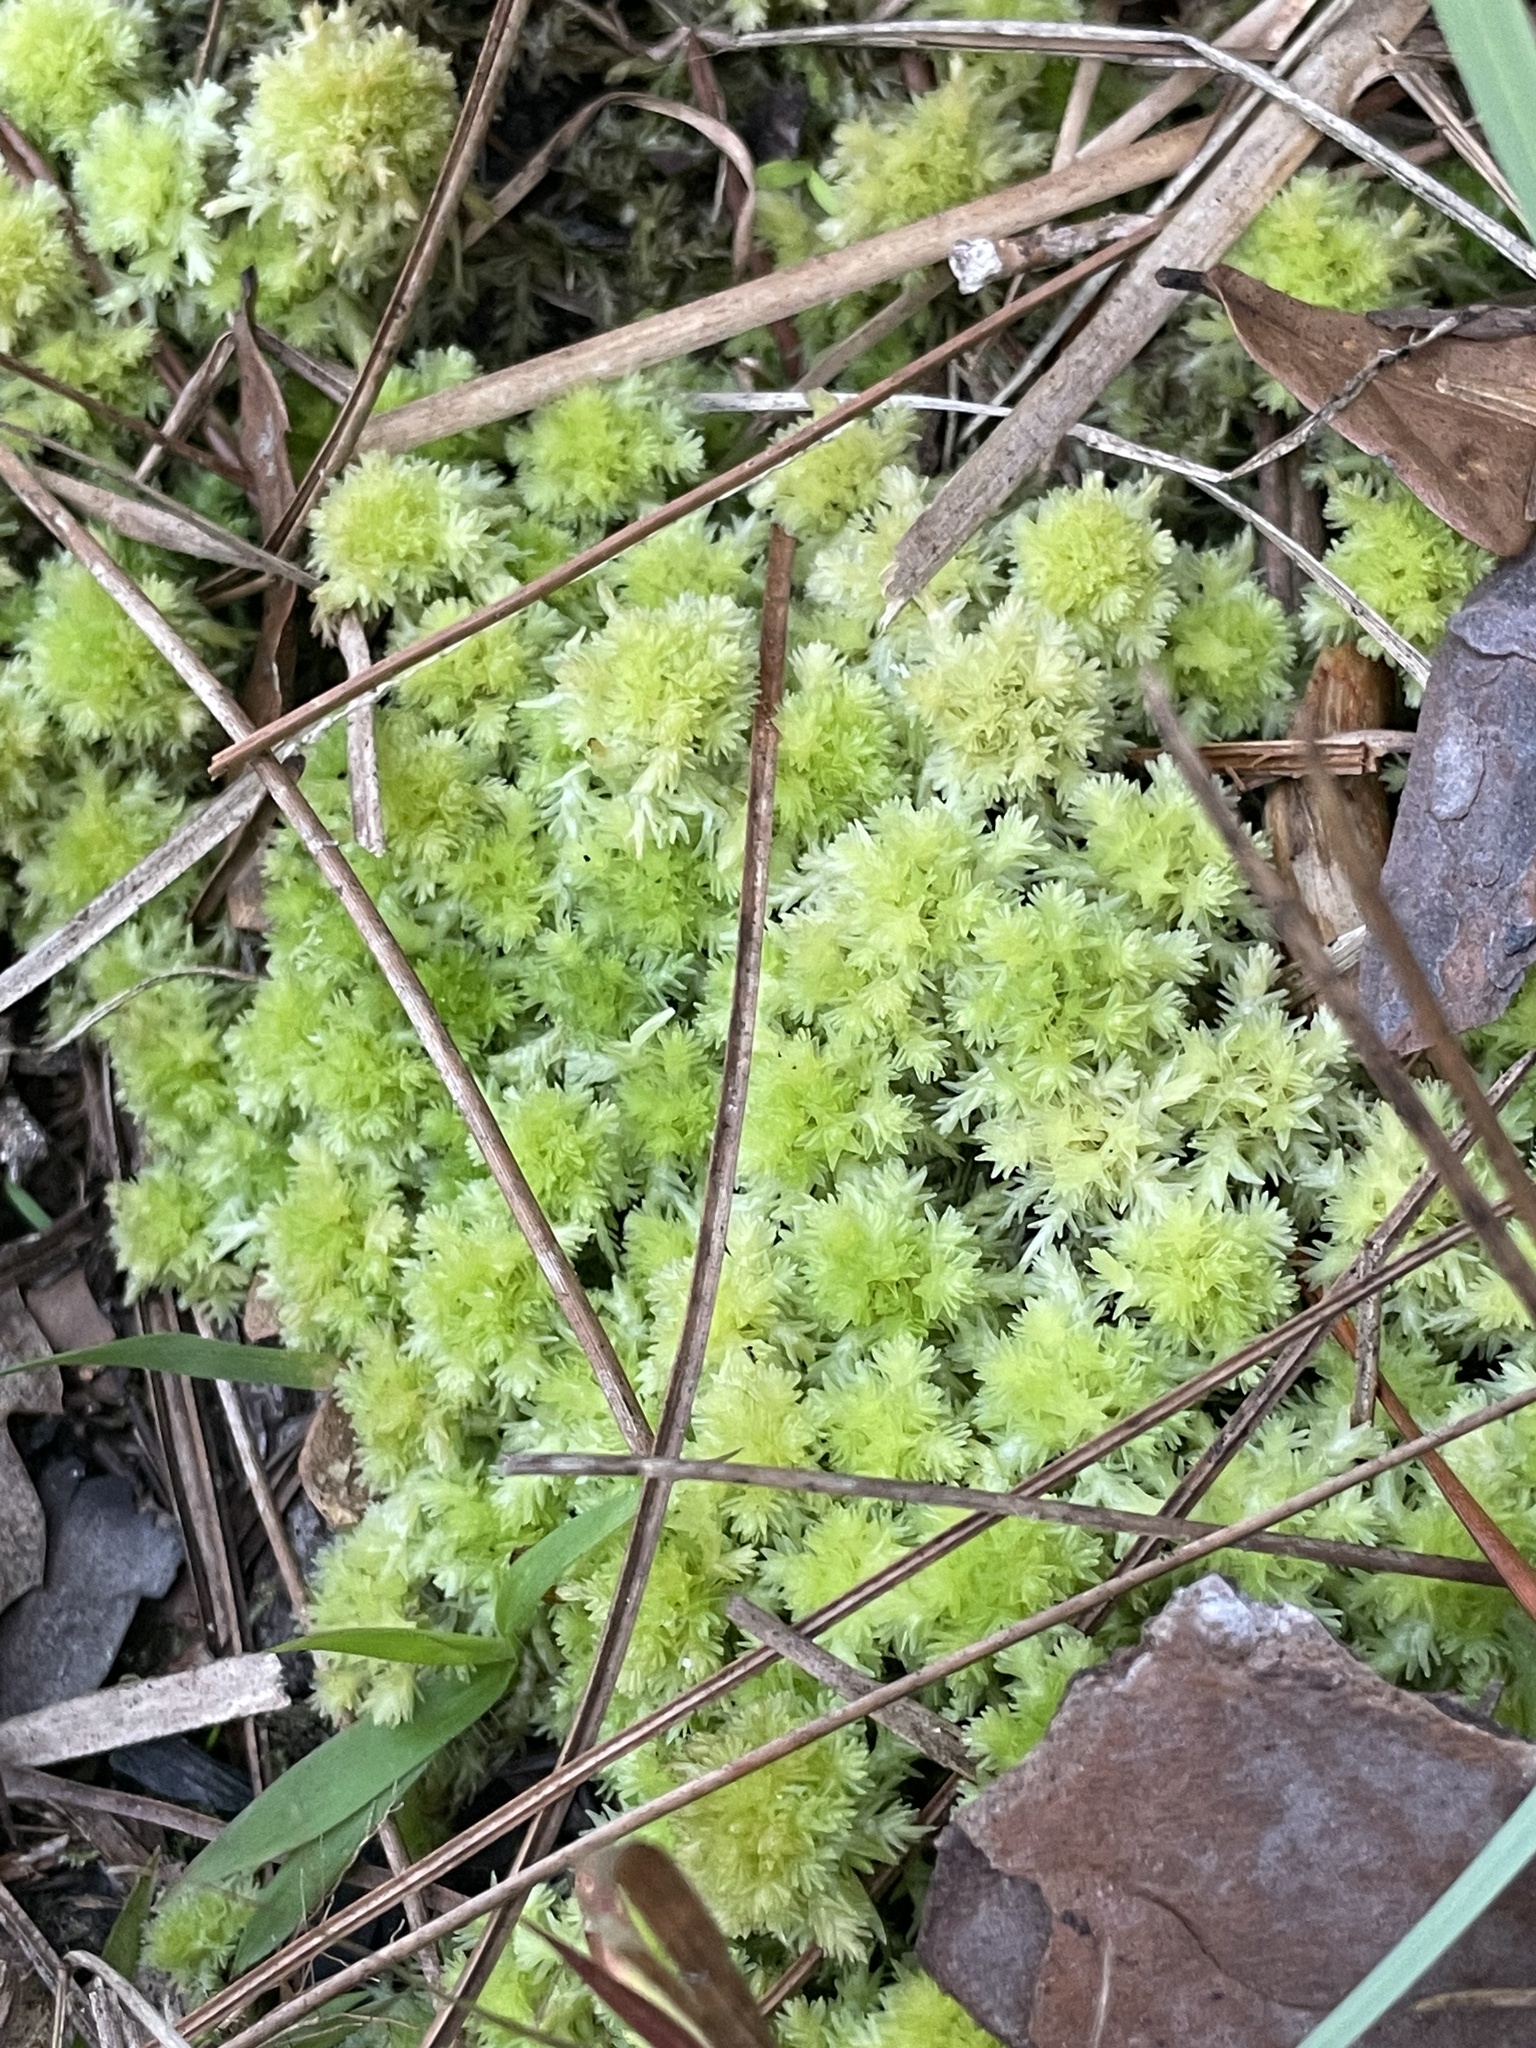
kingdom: Plantae
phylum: Bryophyta
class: Sphagnopsida
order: Sphagnales
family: Sphagnaceae
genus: Sphagnum
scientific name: Sphagnum strictum
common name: Pale bog-moss
